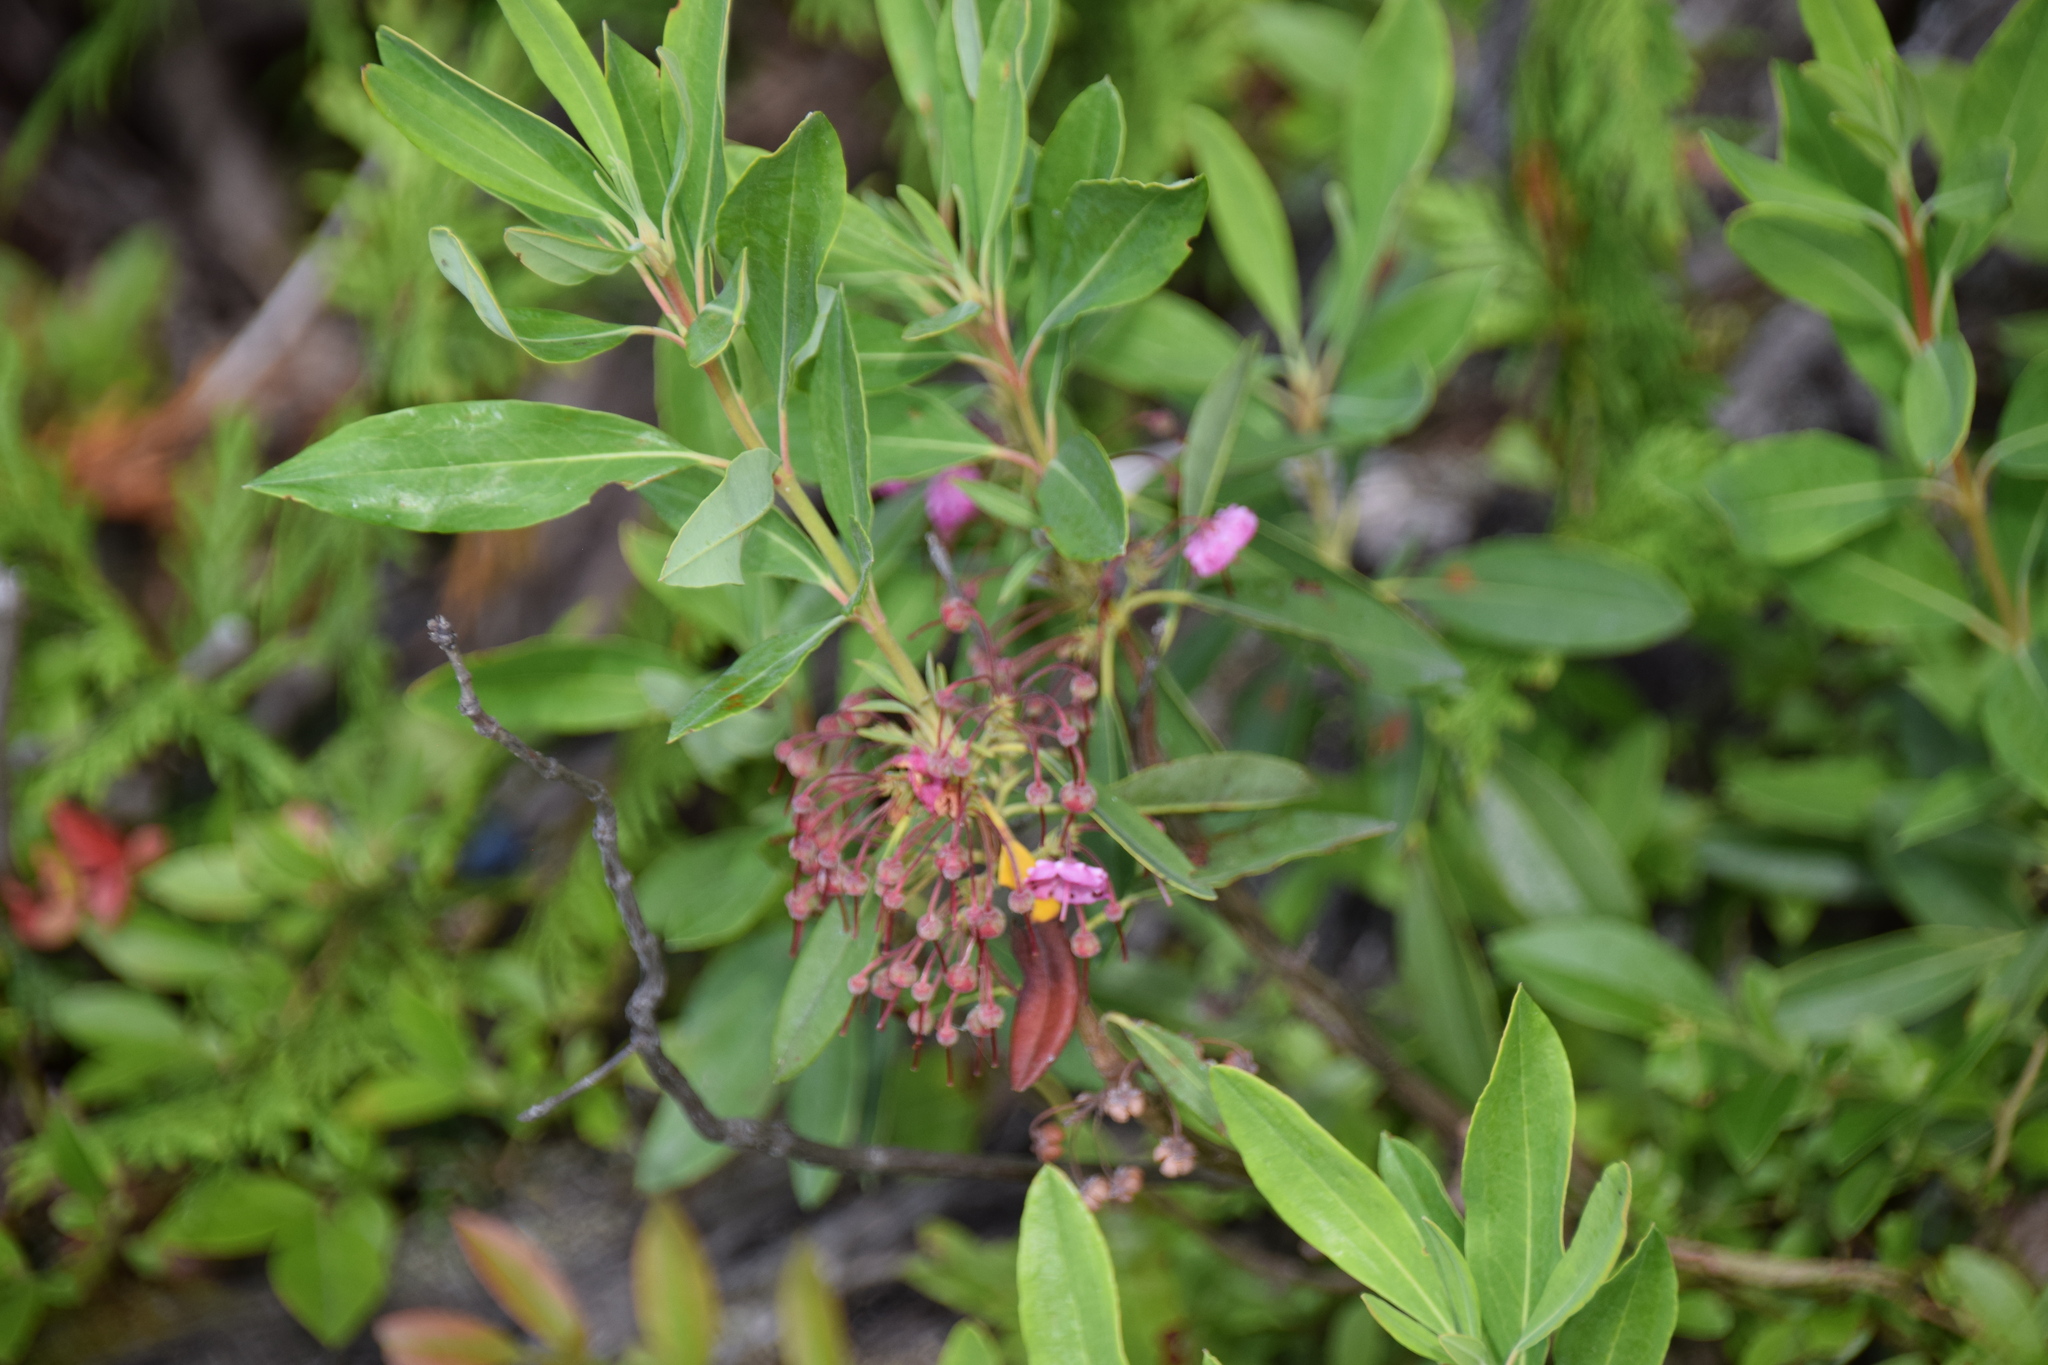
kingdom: Plantae
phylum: Tracheophyta
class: Magnoliopsida
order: Ericales
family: Ericaceae
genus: Kalmia
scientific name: Kalmia angustifolia
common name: Sheep-laurel
